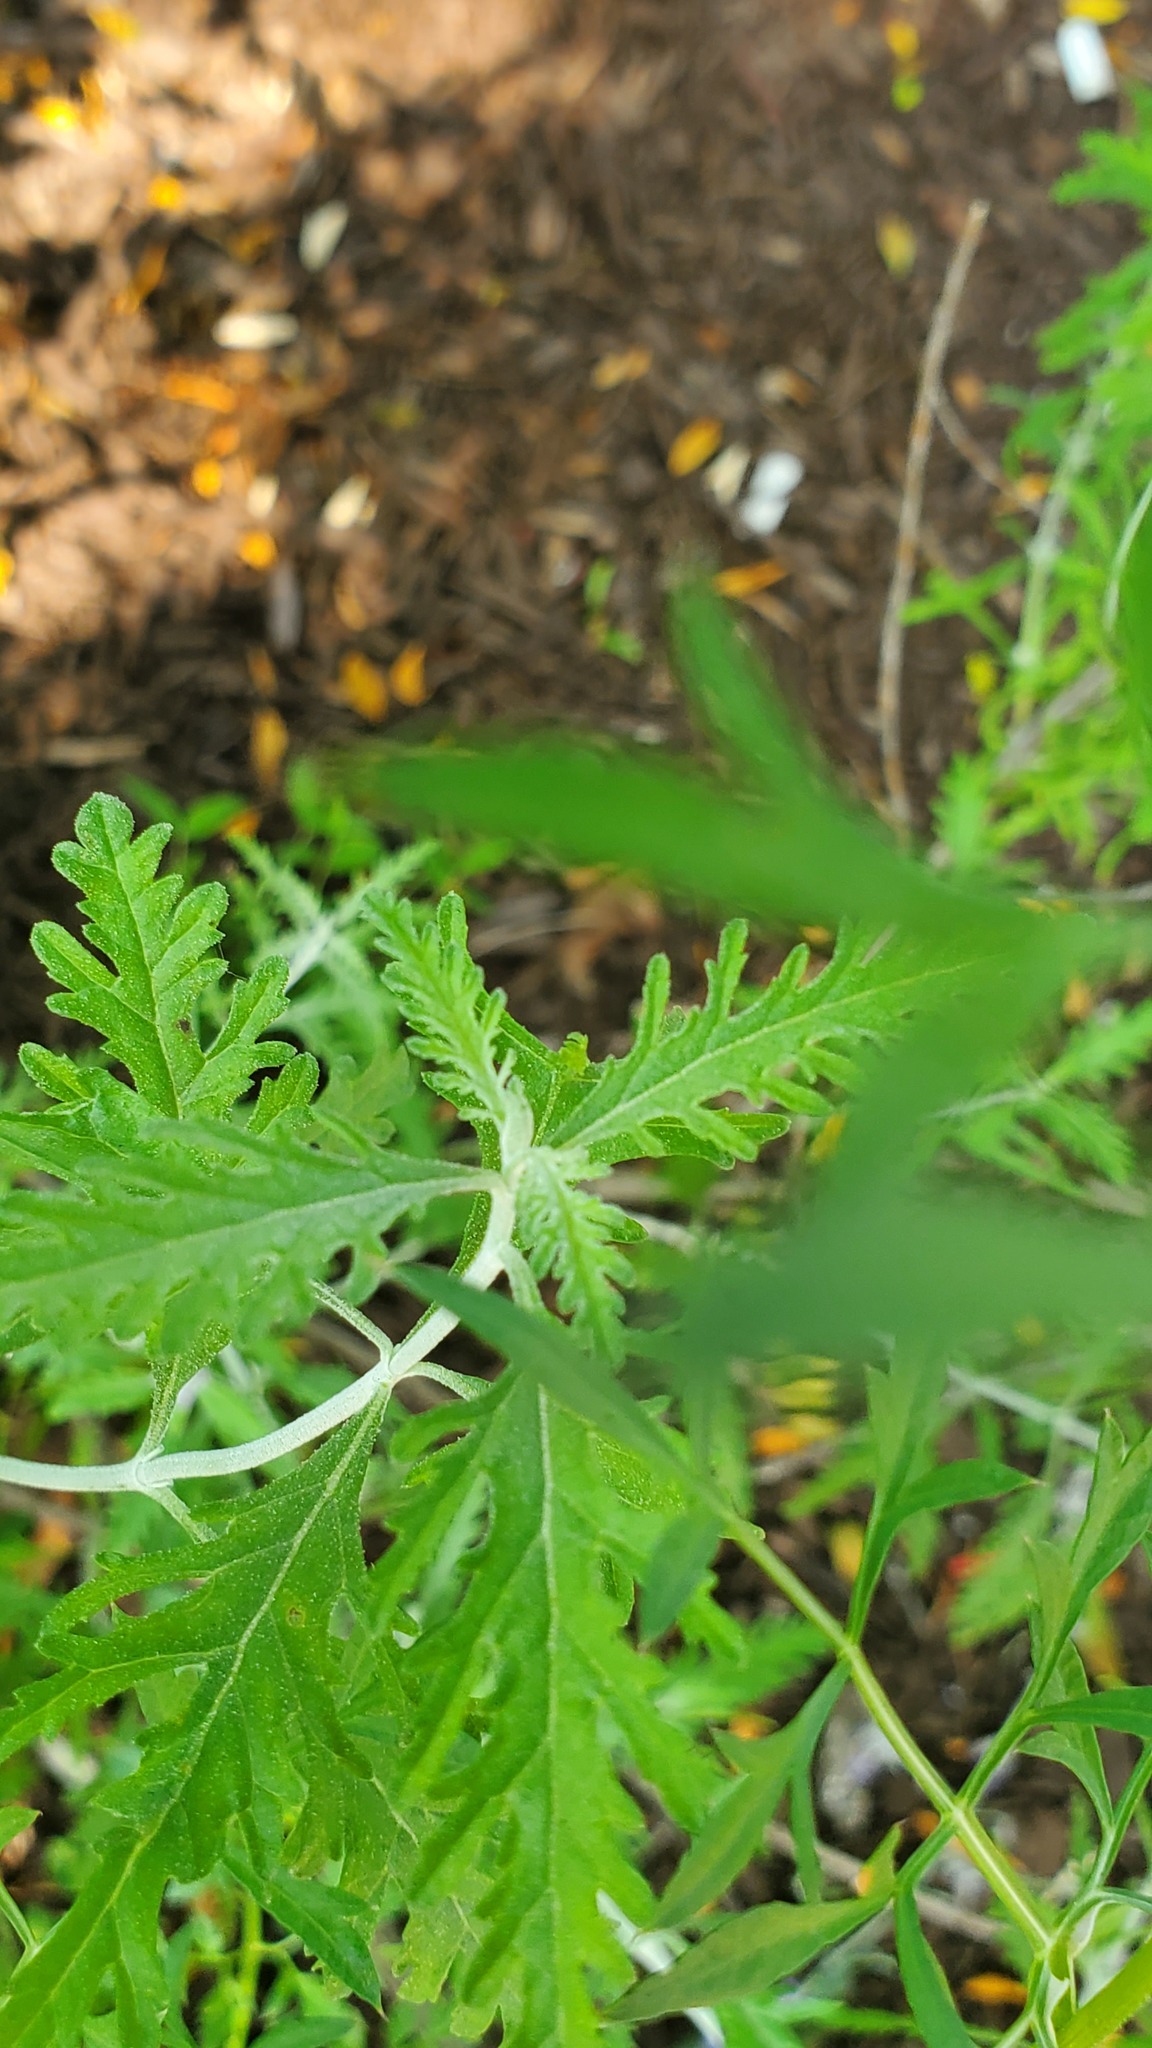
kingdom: Plantae
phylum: Tracheophyta
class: Magnoliopsida
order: Apiales
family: Apiaceae
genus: Daucus
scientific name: Daucus carota
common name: Wild carrot
